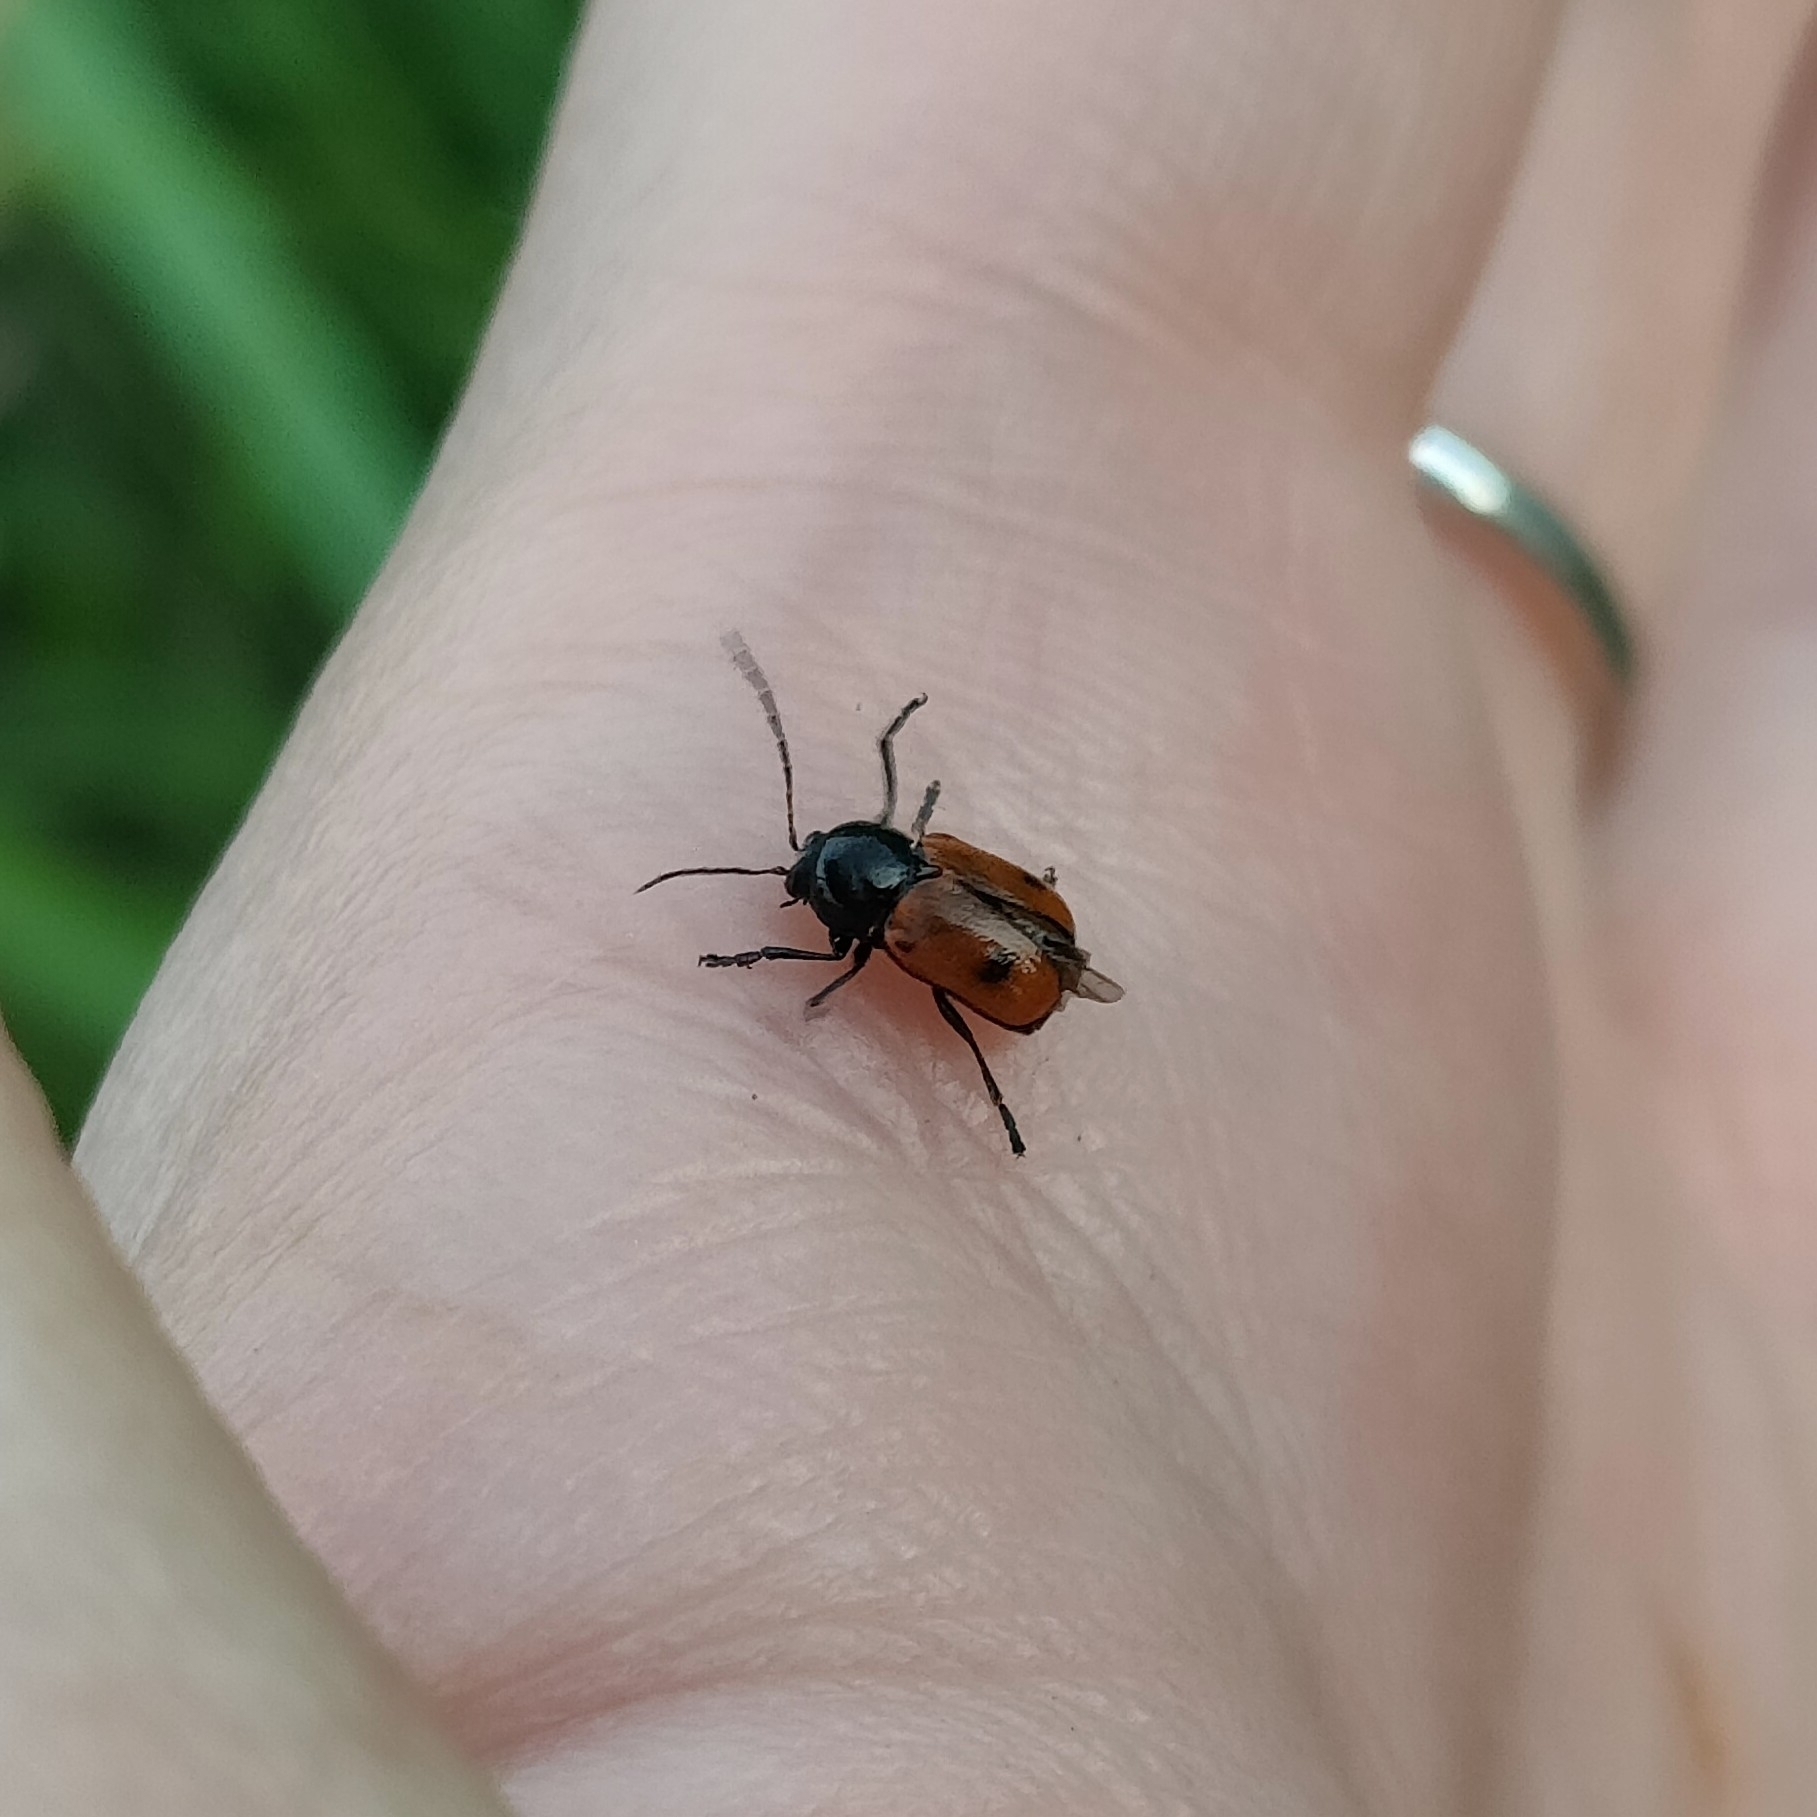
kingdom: Animalia
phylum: Arthropoda
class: Insecta
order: Coleoptera
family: Chrysomelidae
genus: Chiridopsis
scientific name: Chiridopsis bipunctata
